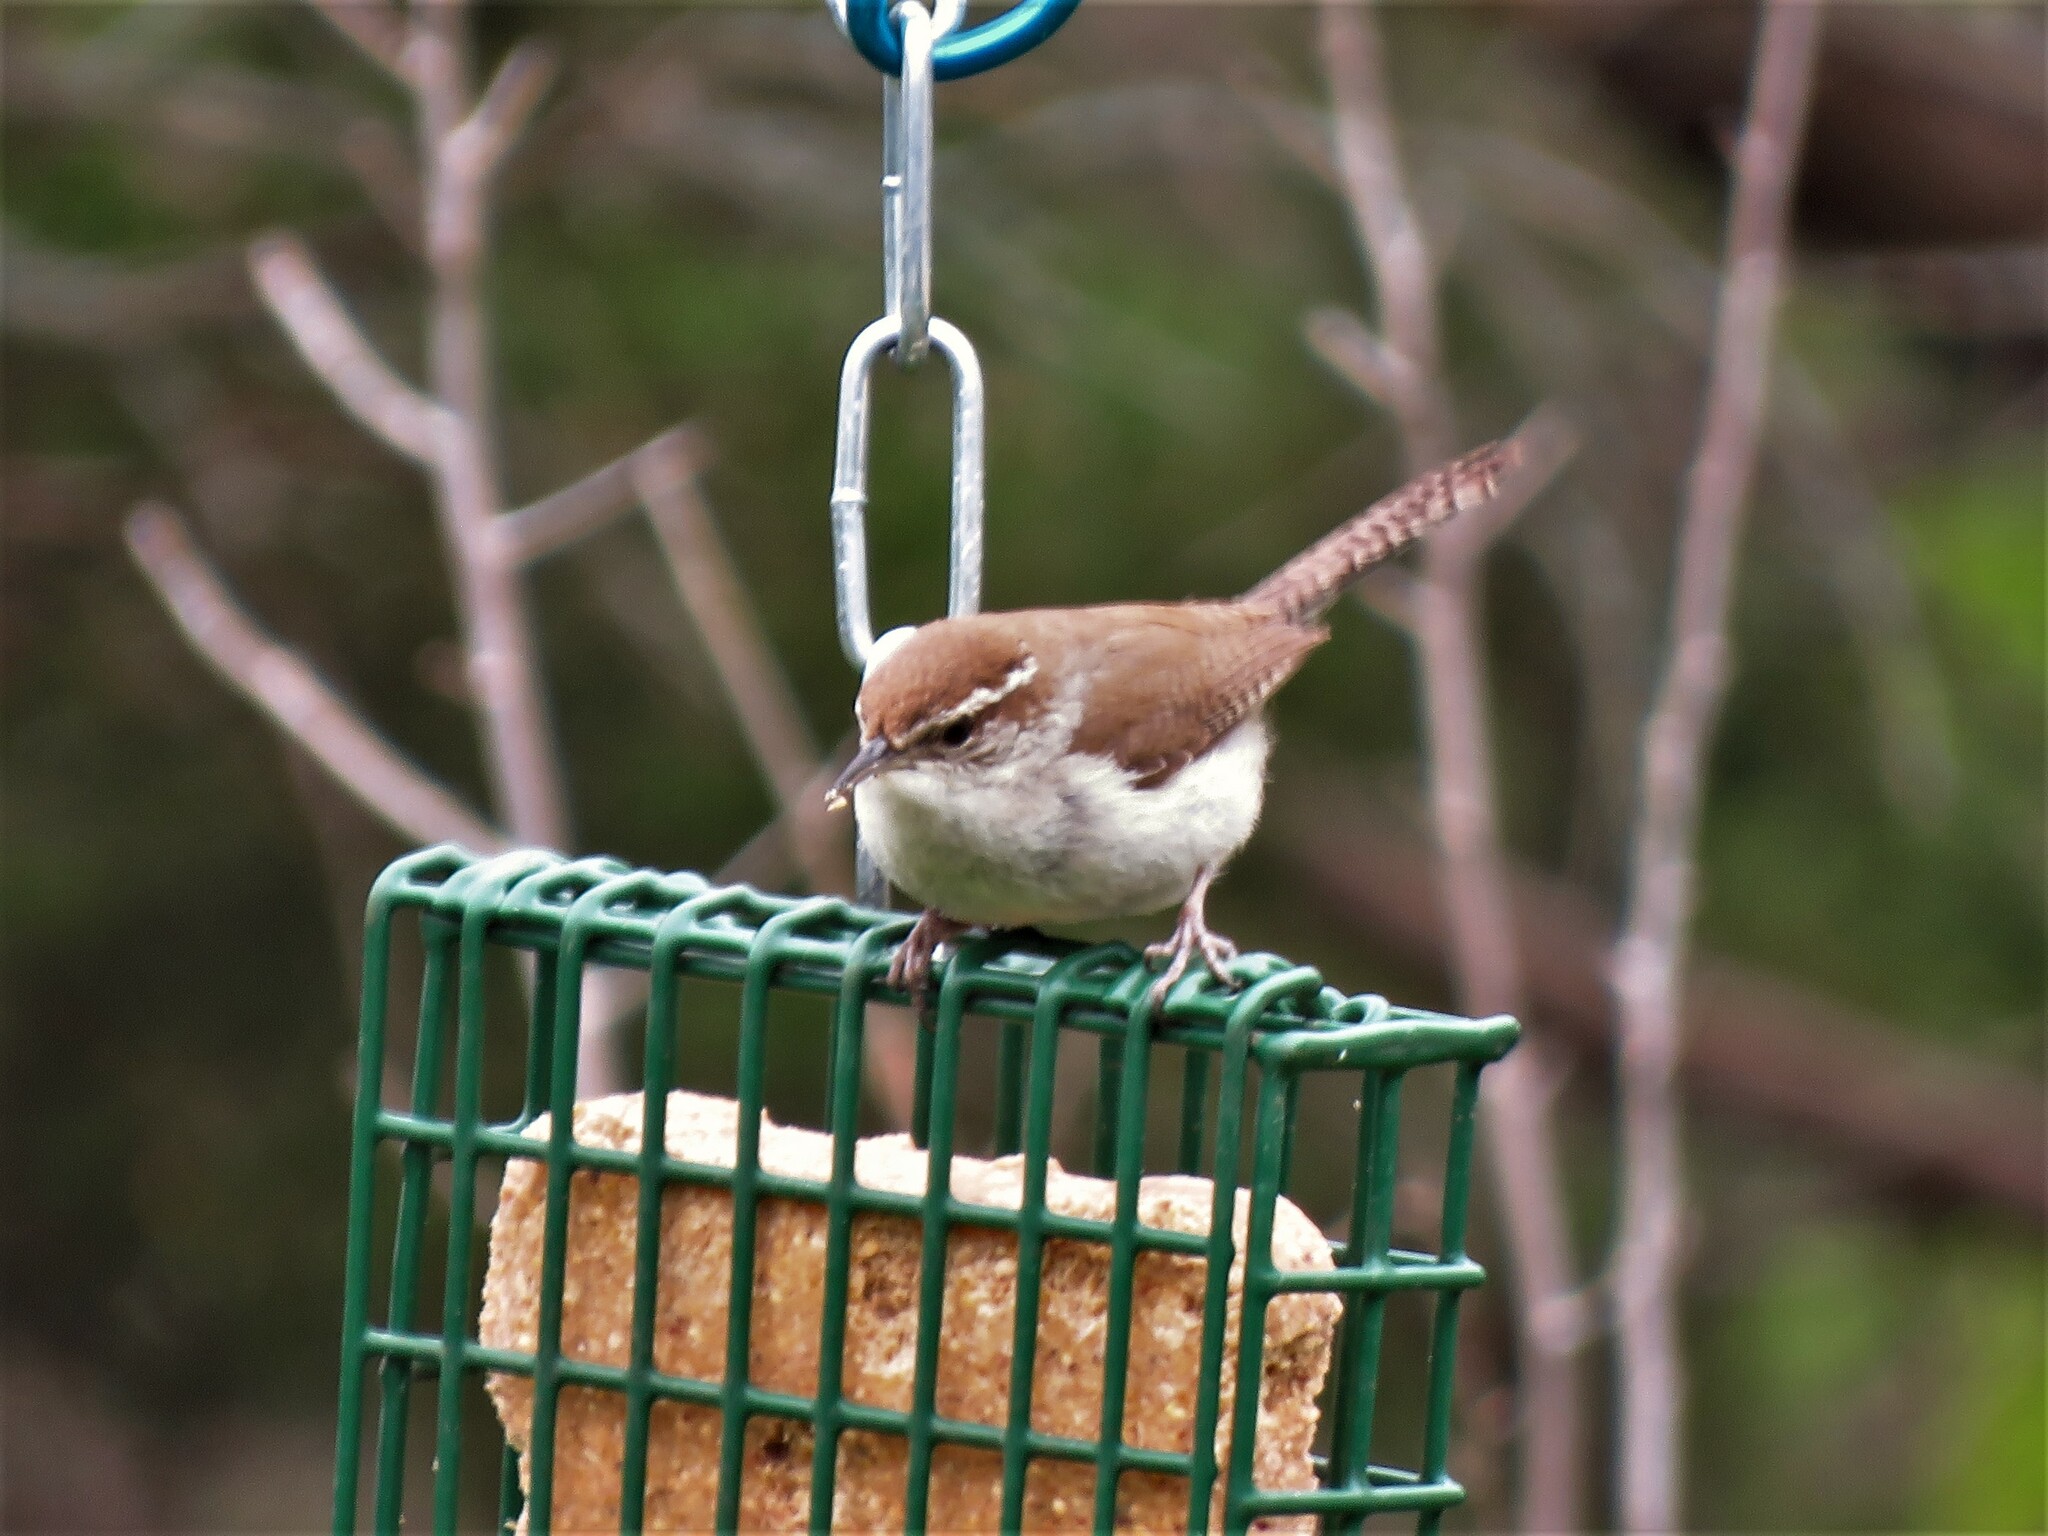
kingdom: Animalia
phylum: Chordata
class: Aves
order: Passeriformes
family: Troglodytidae
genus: Thryomanes
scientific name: Thryomanes bewickii
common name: Bewick's wren
